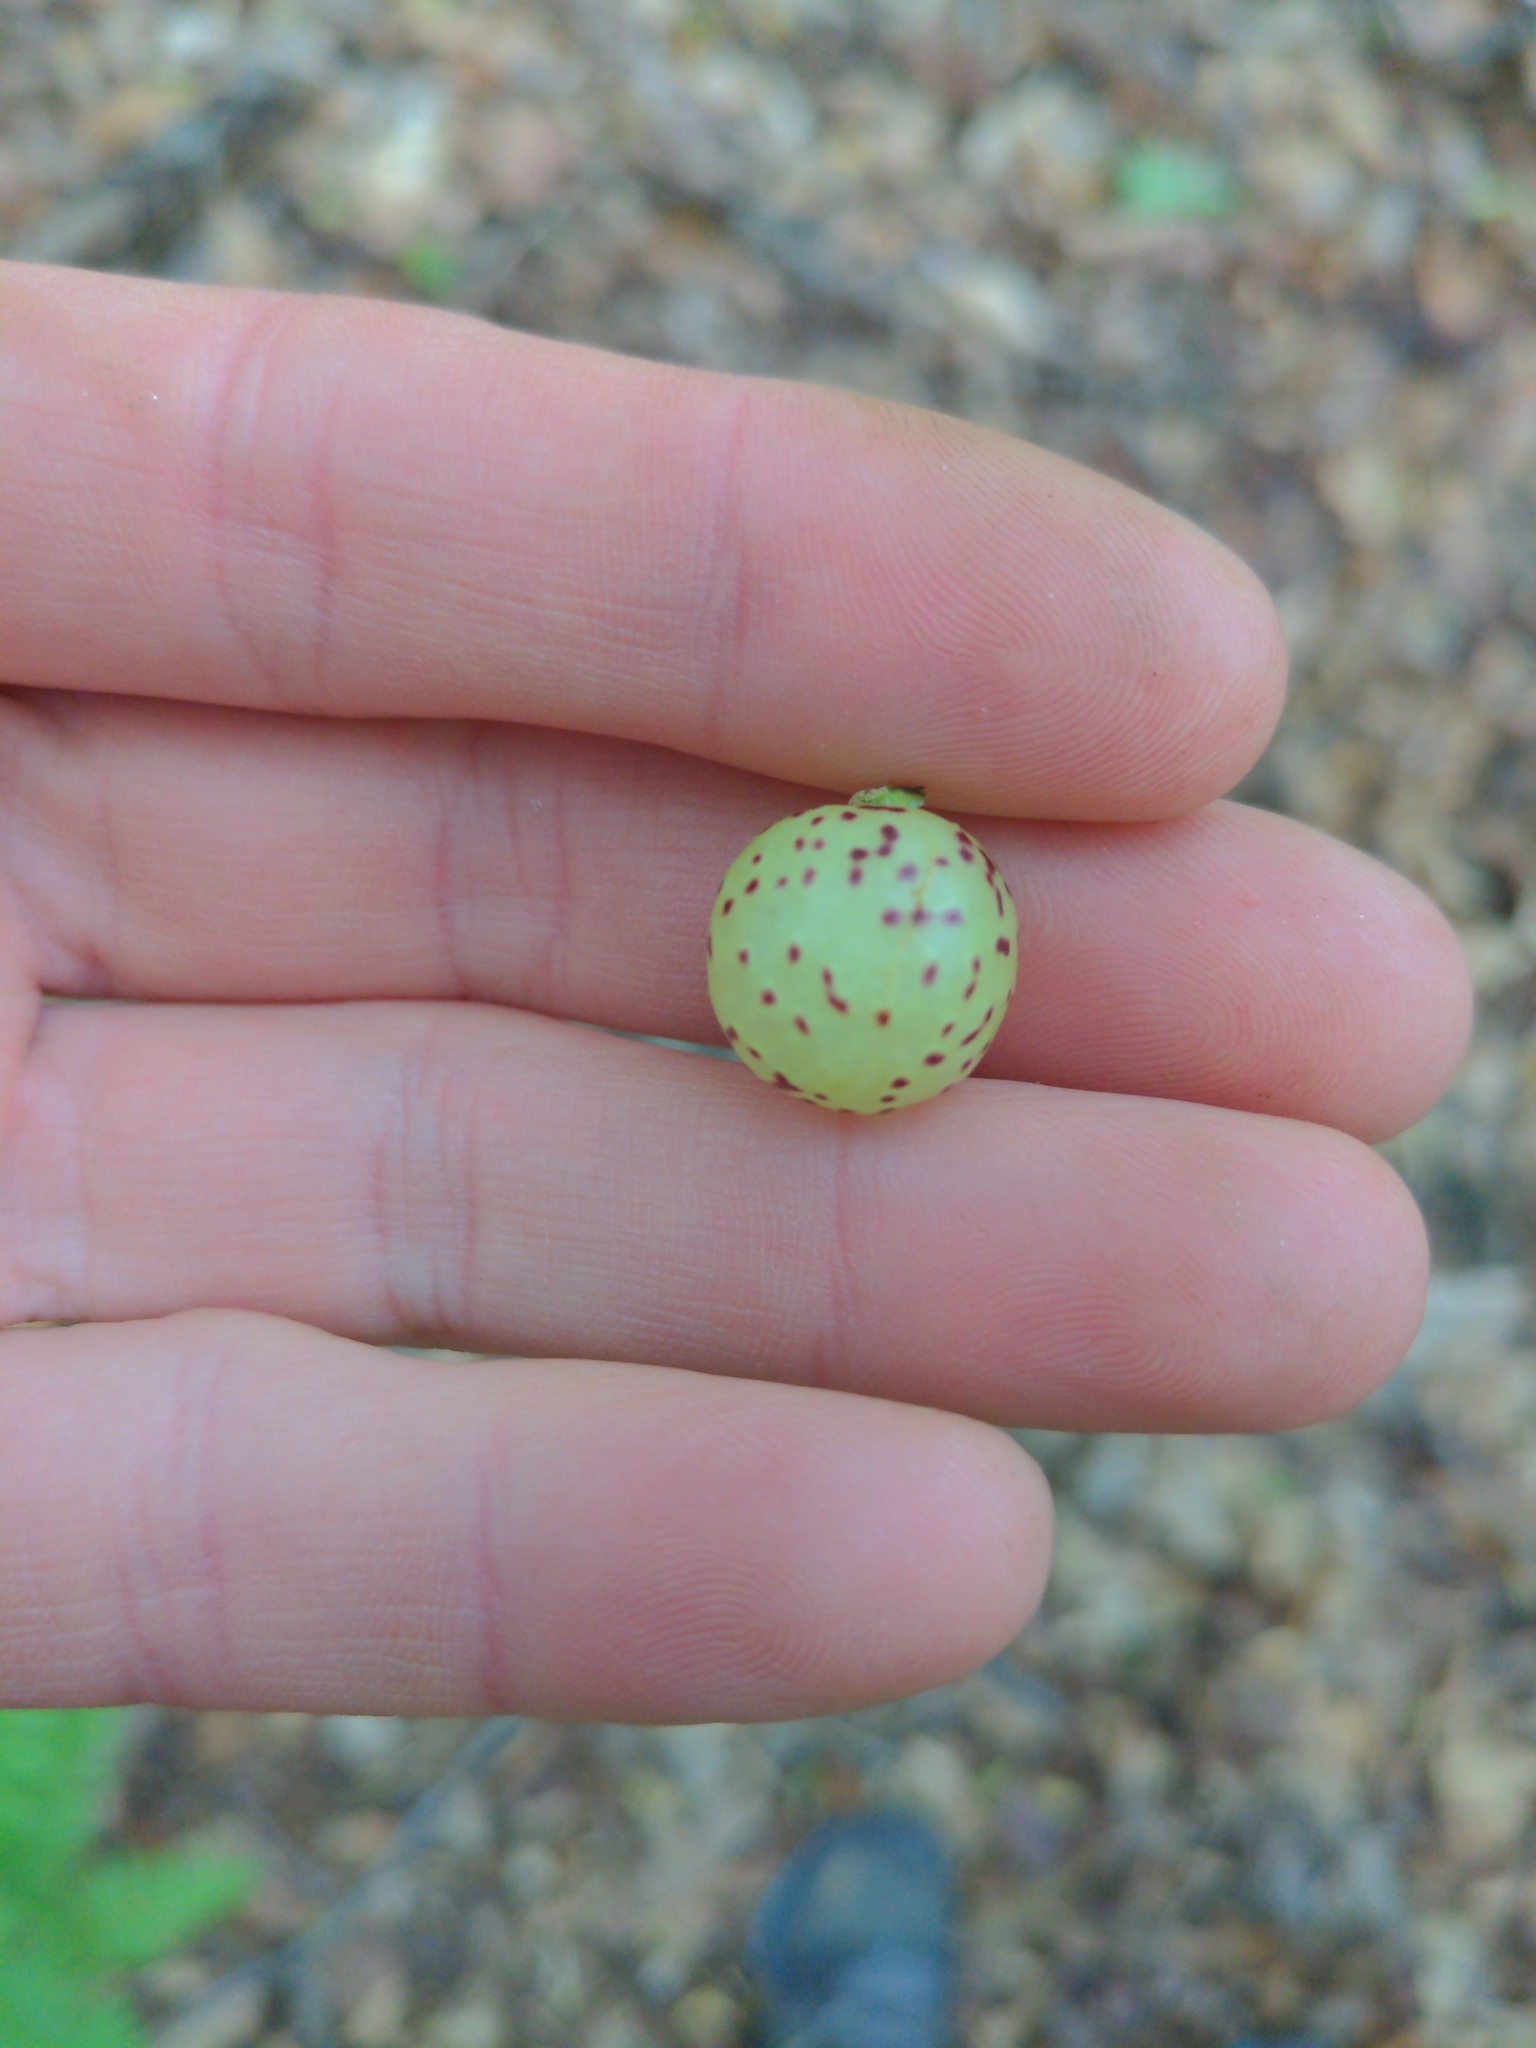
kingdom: Animalia
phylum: Arthropoda
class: Insecta
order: Hymenoptera
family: Cynipidae
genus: Amphibolips
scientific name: Amphibolips
